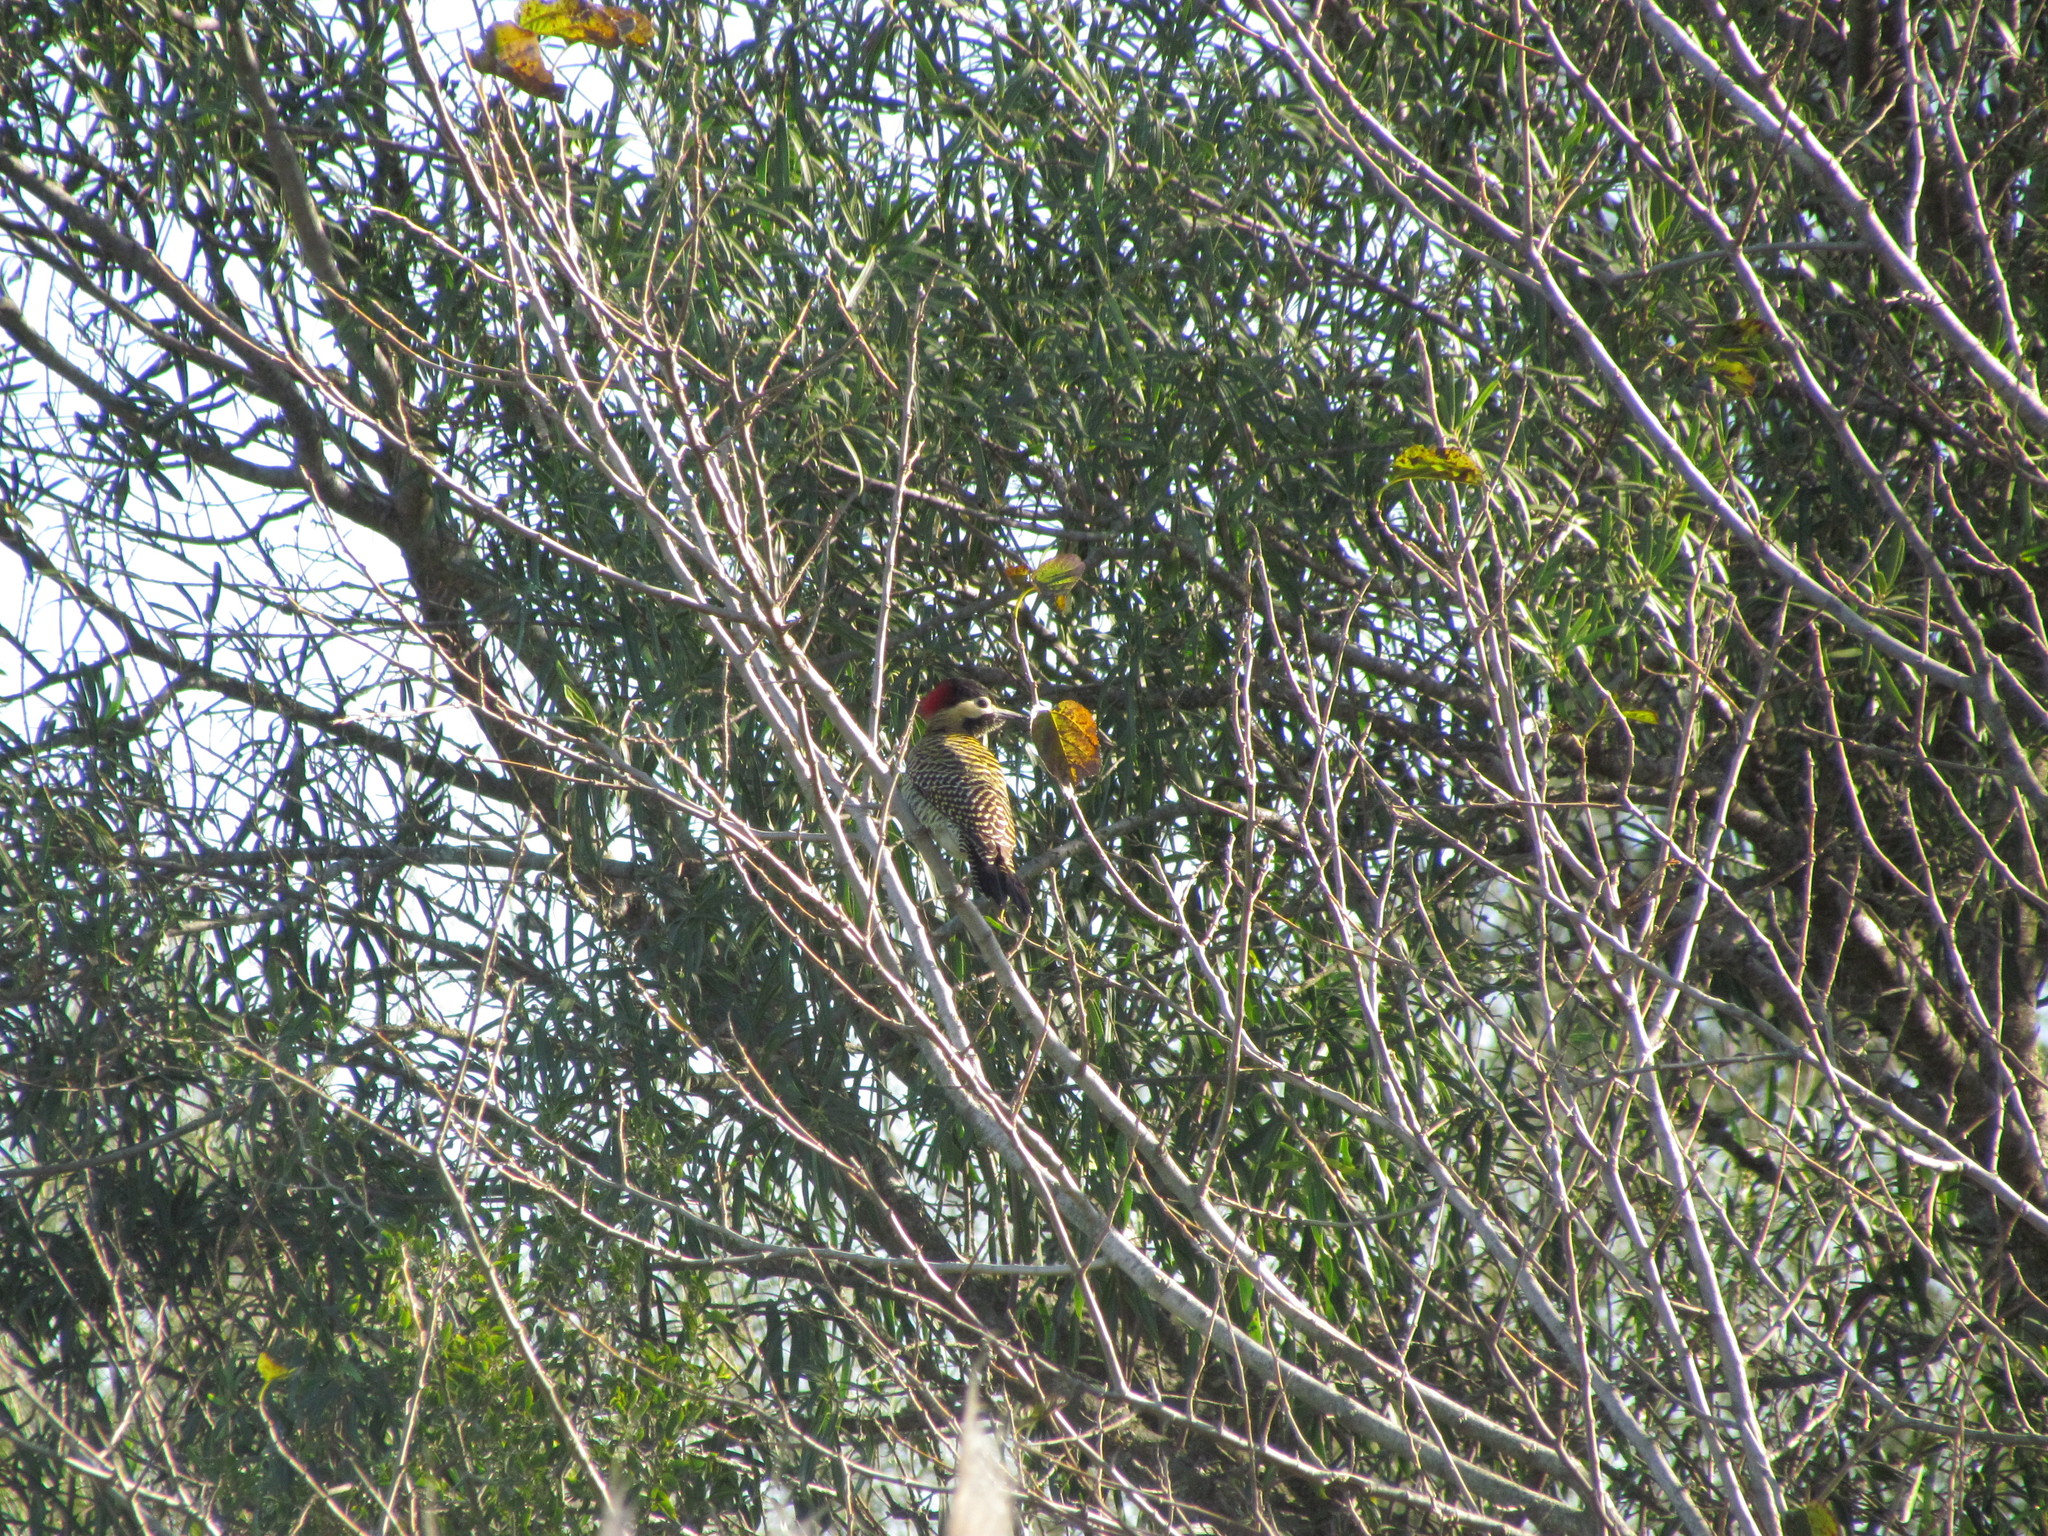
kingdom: Animalia
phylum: Chordata
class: Aves
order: Piciformes
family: Picidae
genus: Colaptes
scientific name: Colaptes melanochloros
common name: Green-barred woodpecker
